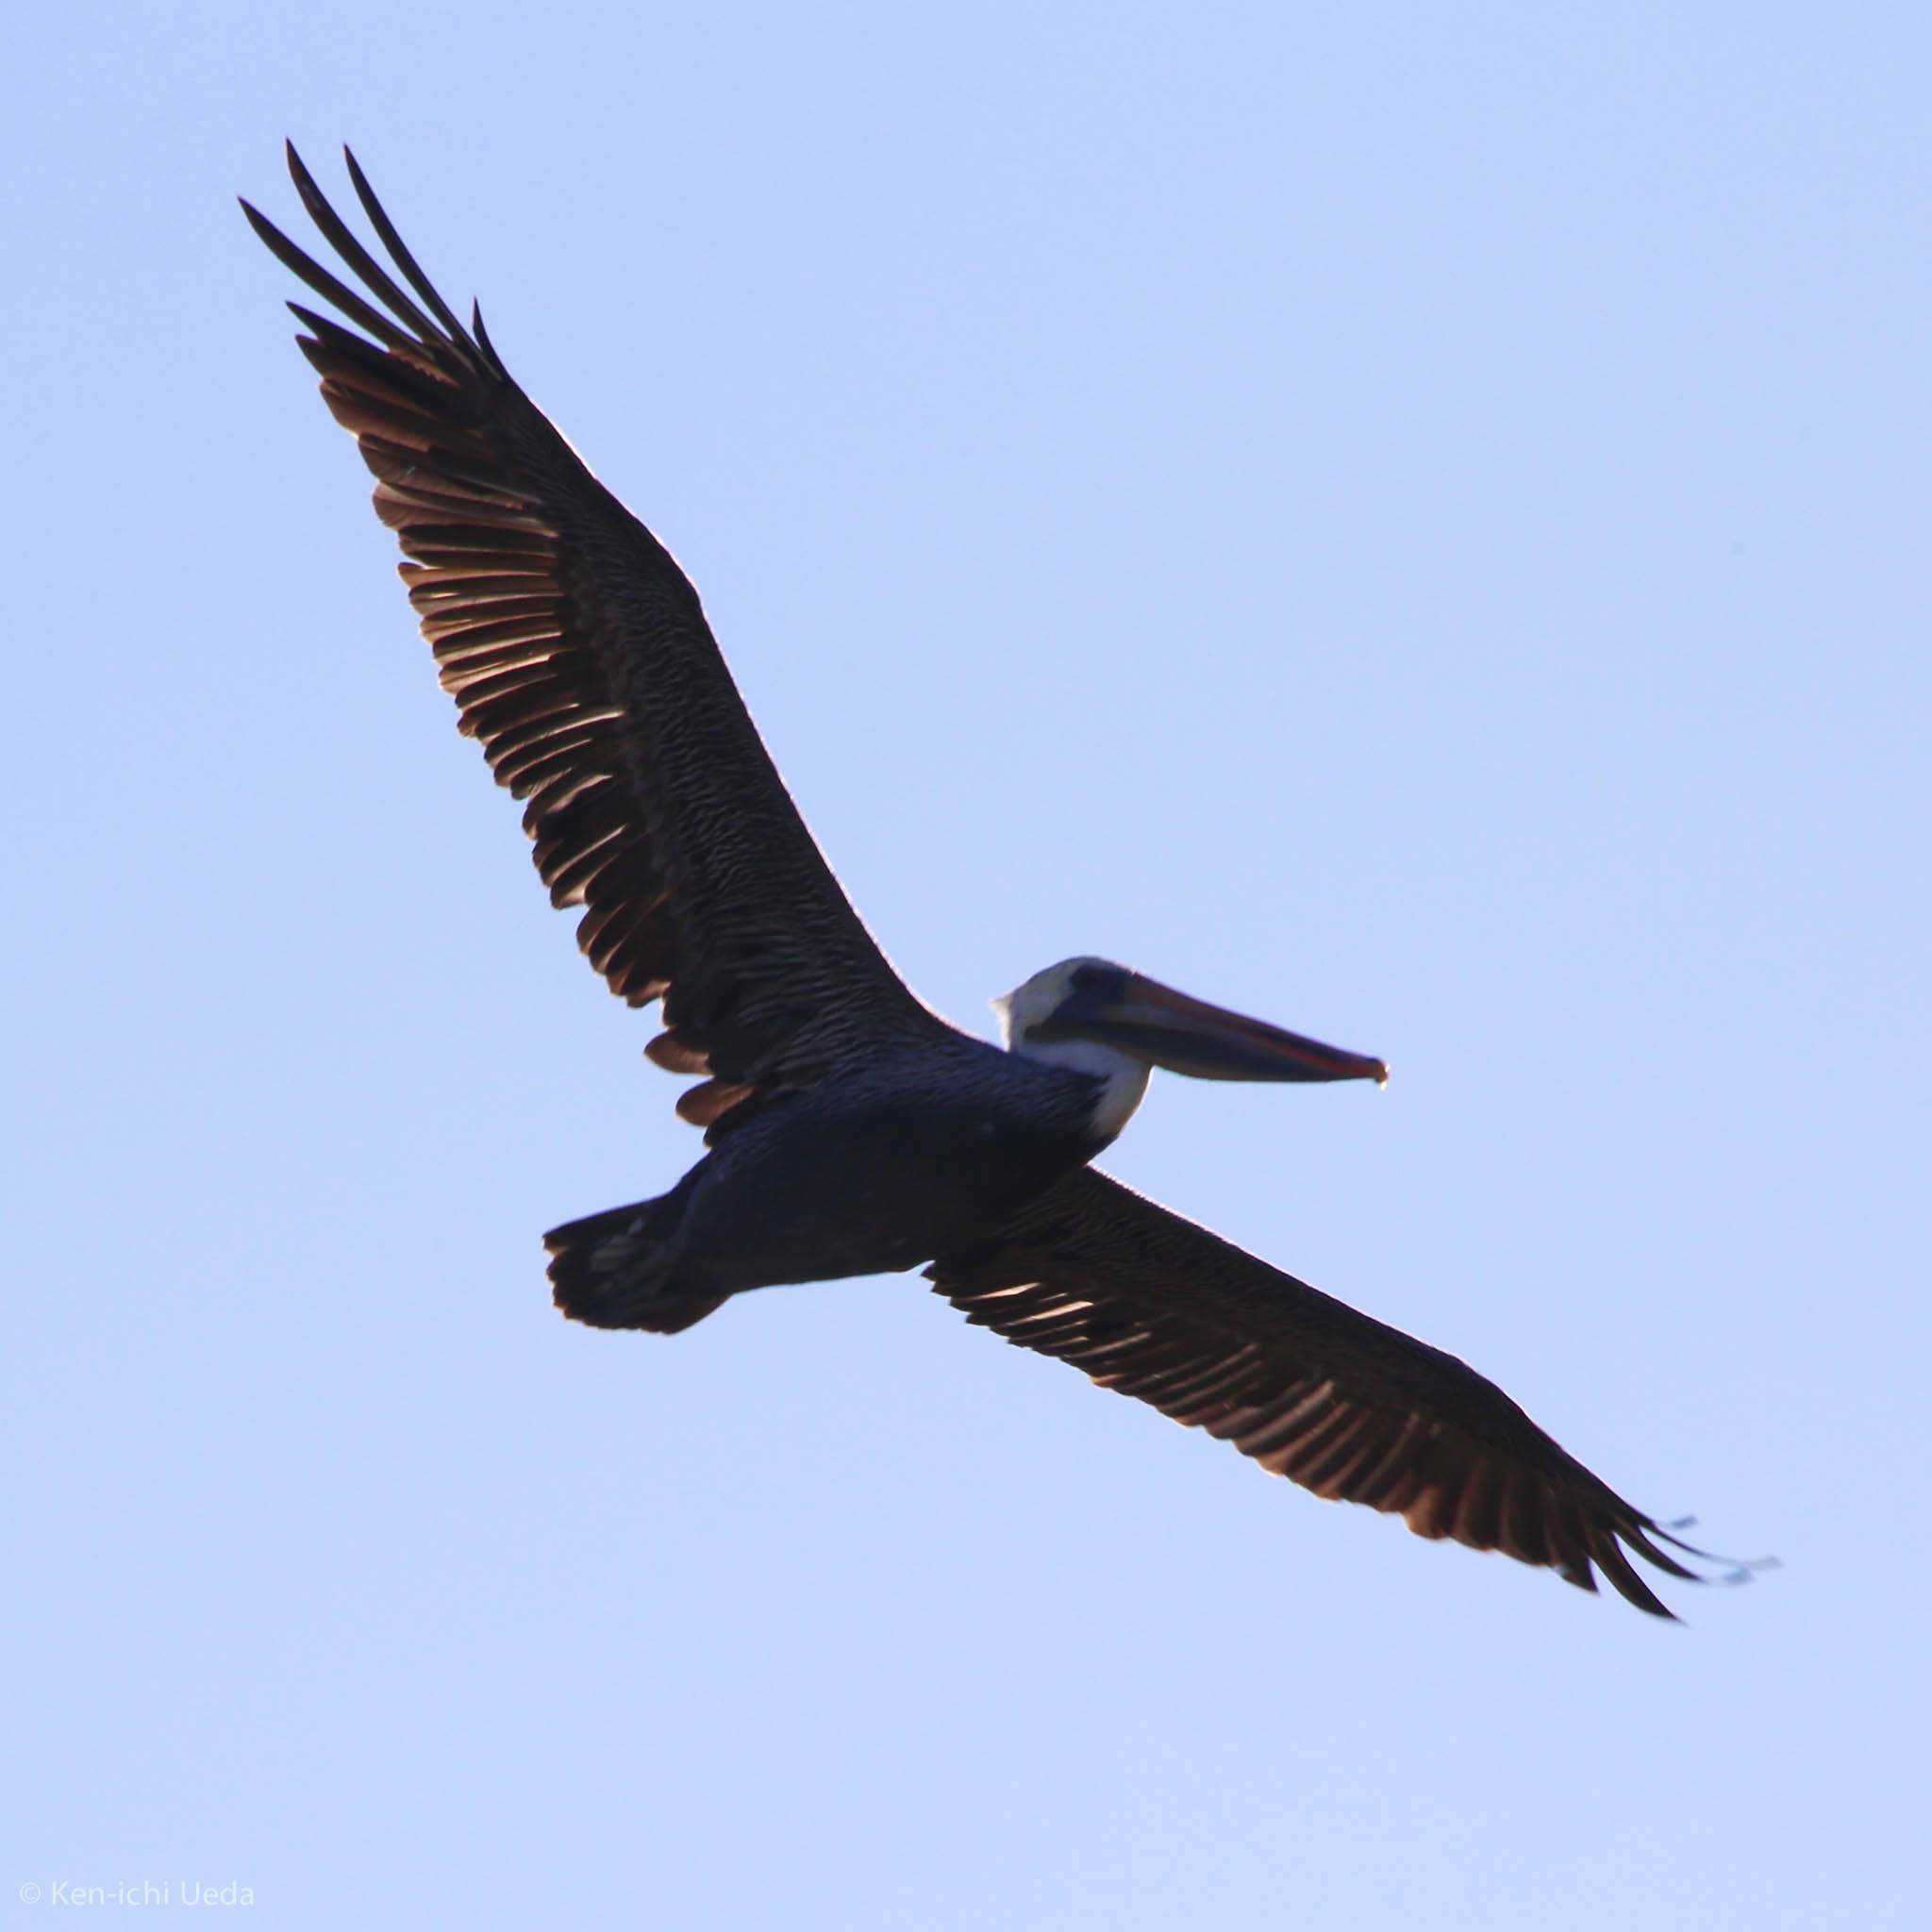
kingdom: Animalia
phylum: Chordata
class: Aves
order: Pelecaniformes
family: Pelecanidae
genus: Pelecanus
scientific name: Pelecanus occidentalis
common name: Brown pelican
